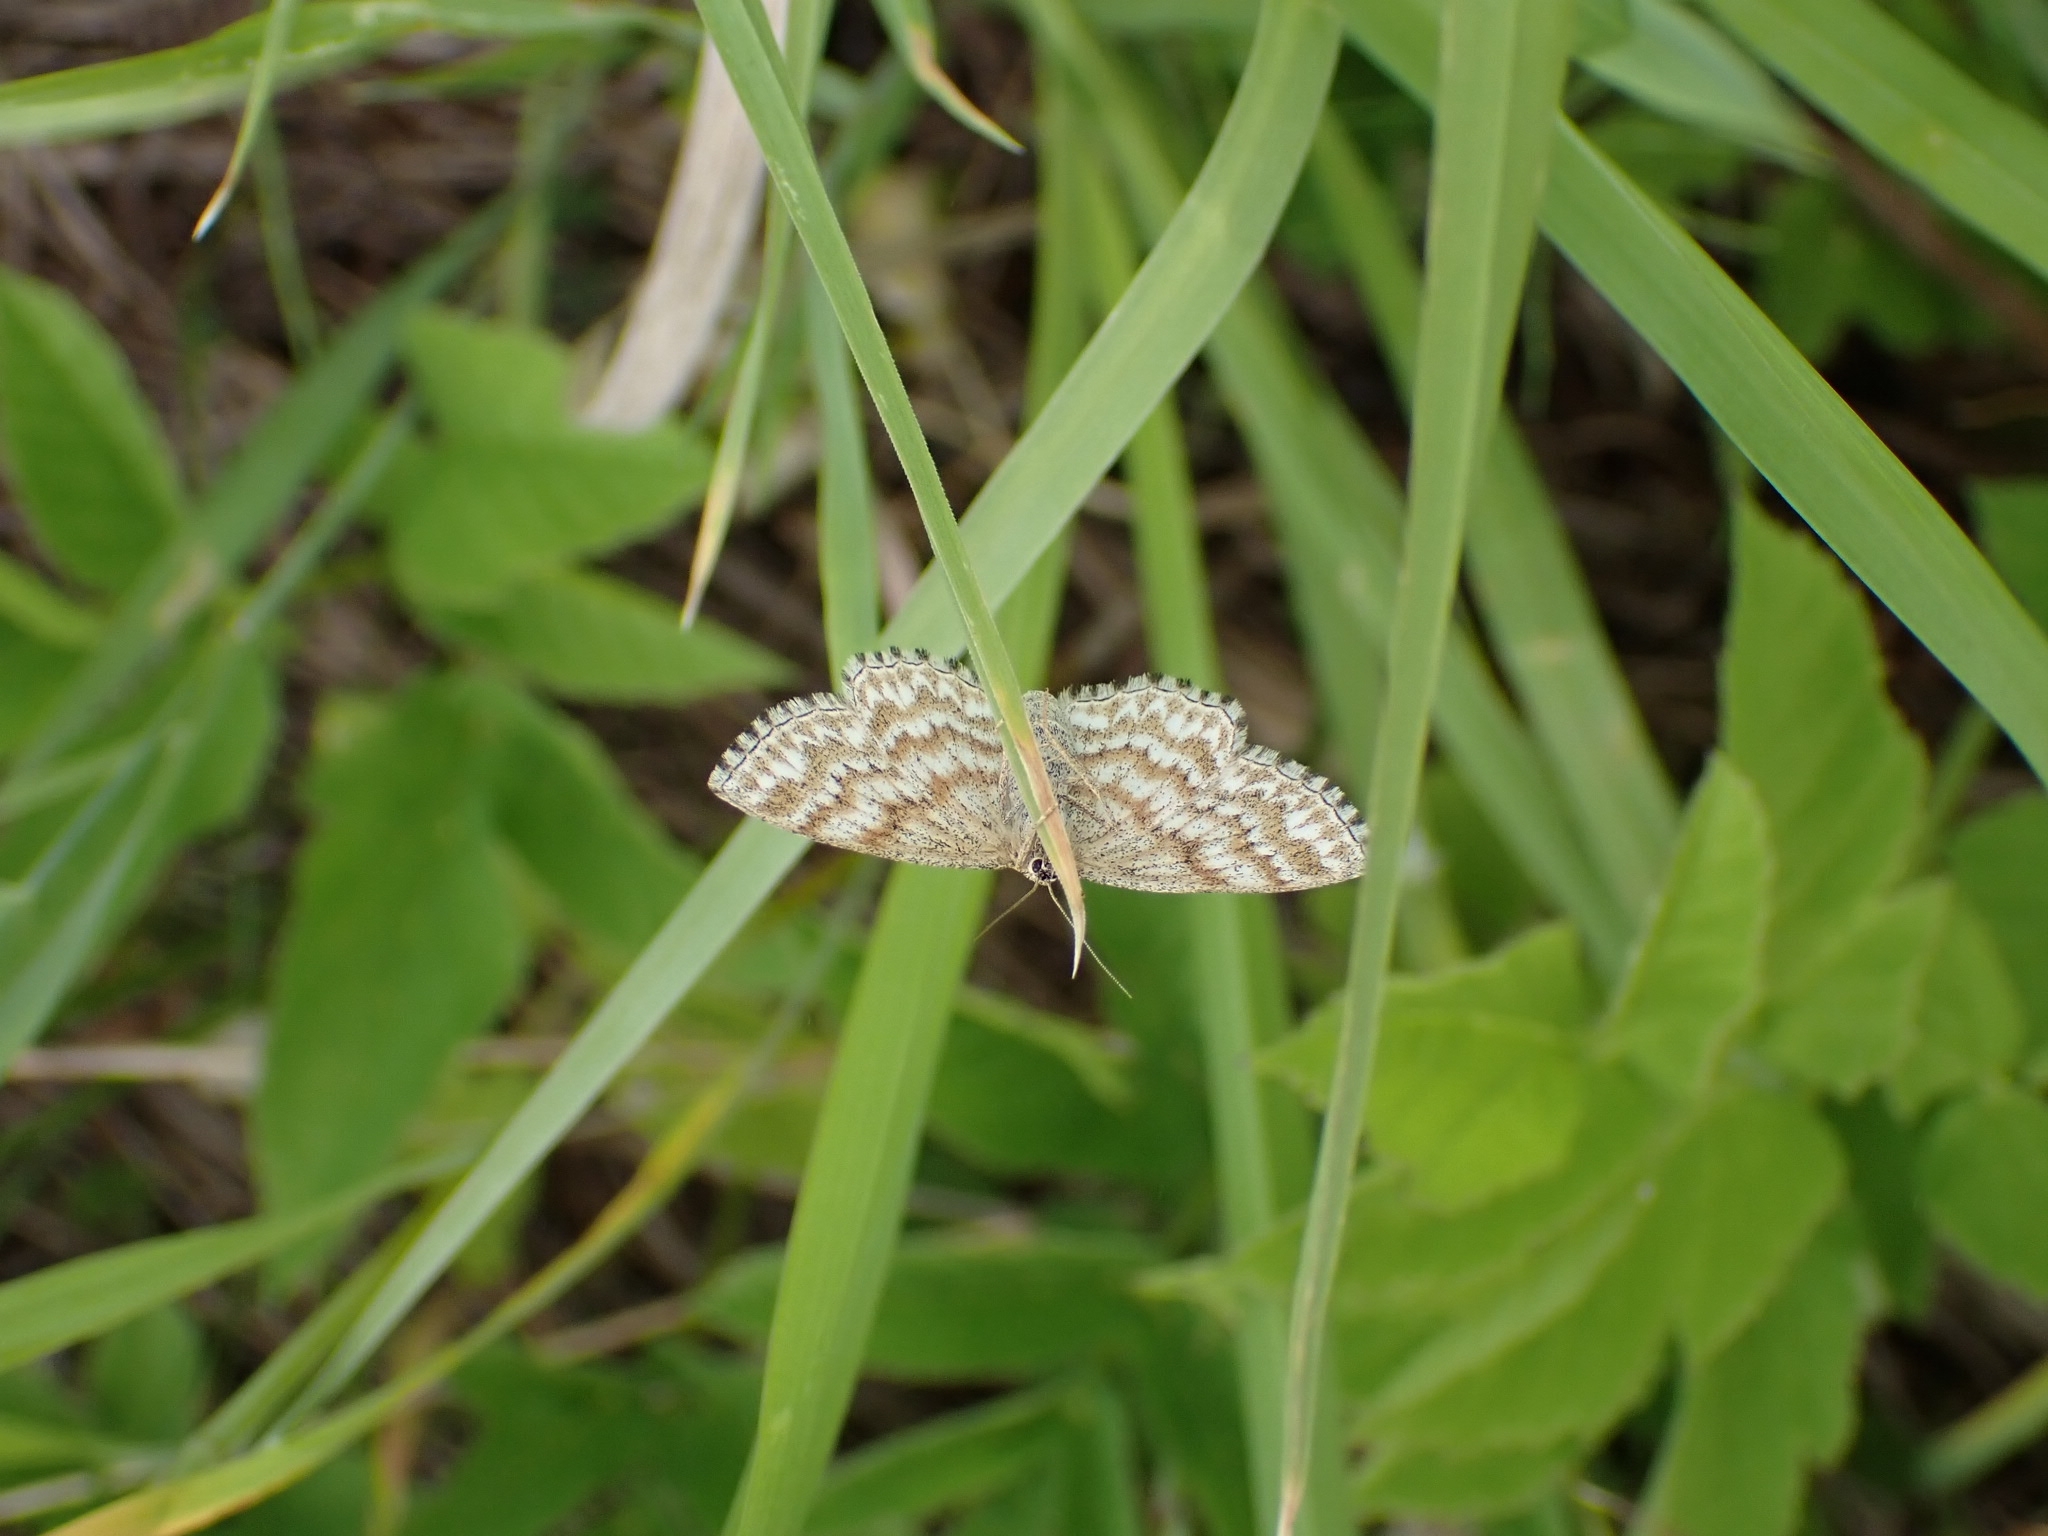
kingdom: Animalia
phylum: Arthropoda
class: Insecta
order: Lepidoptera
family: Geometridae
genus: Scopula
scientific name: Scopula immorata
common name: Lewes wave
